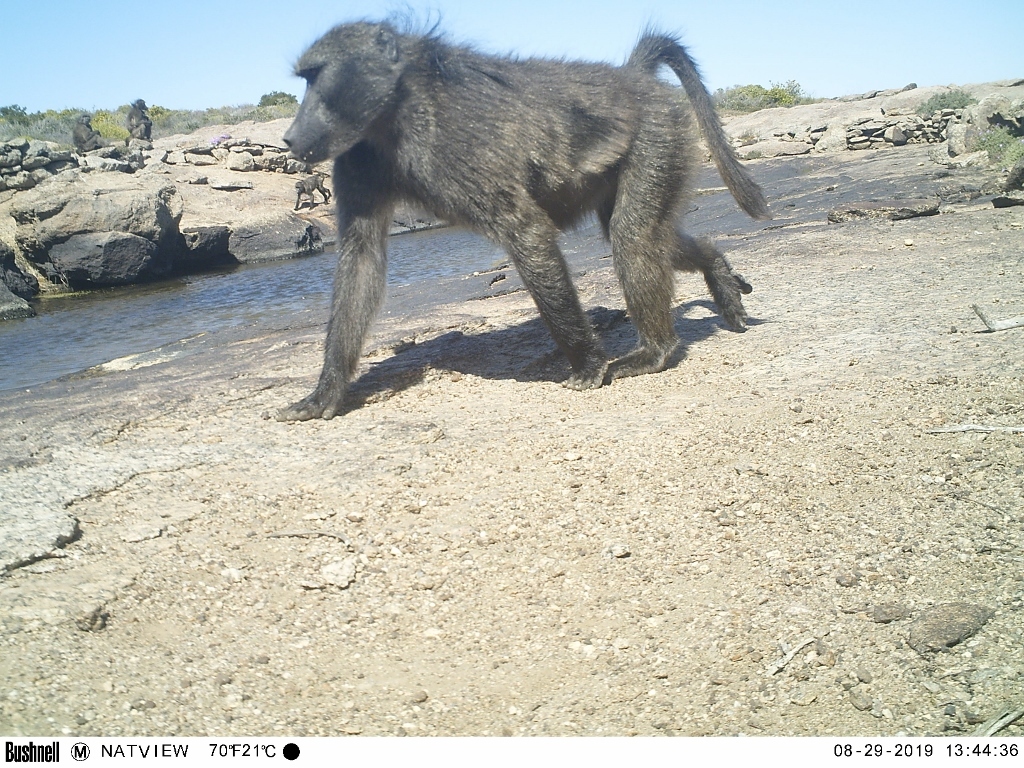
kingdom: Animalia
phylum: Chordata
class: Mammalia
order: Primates
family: Cercopithecidae
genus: Papio
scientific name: Papio ursinus
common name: Chacma baboon
